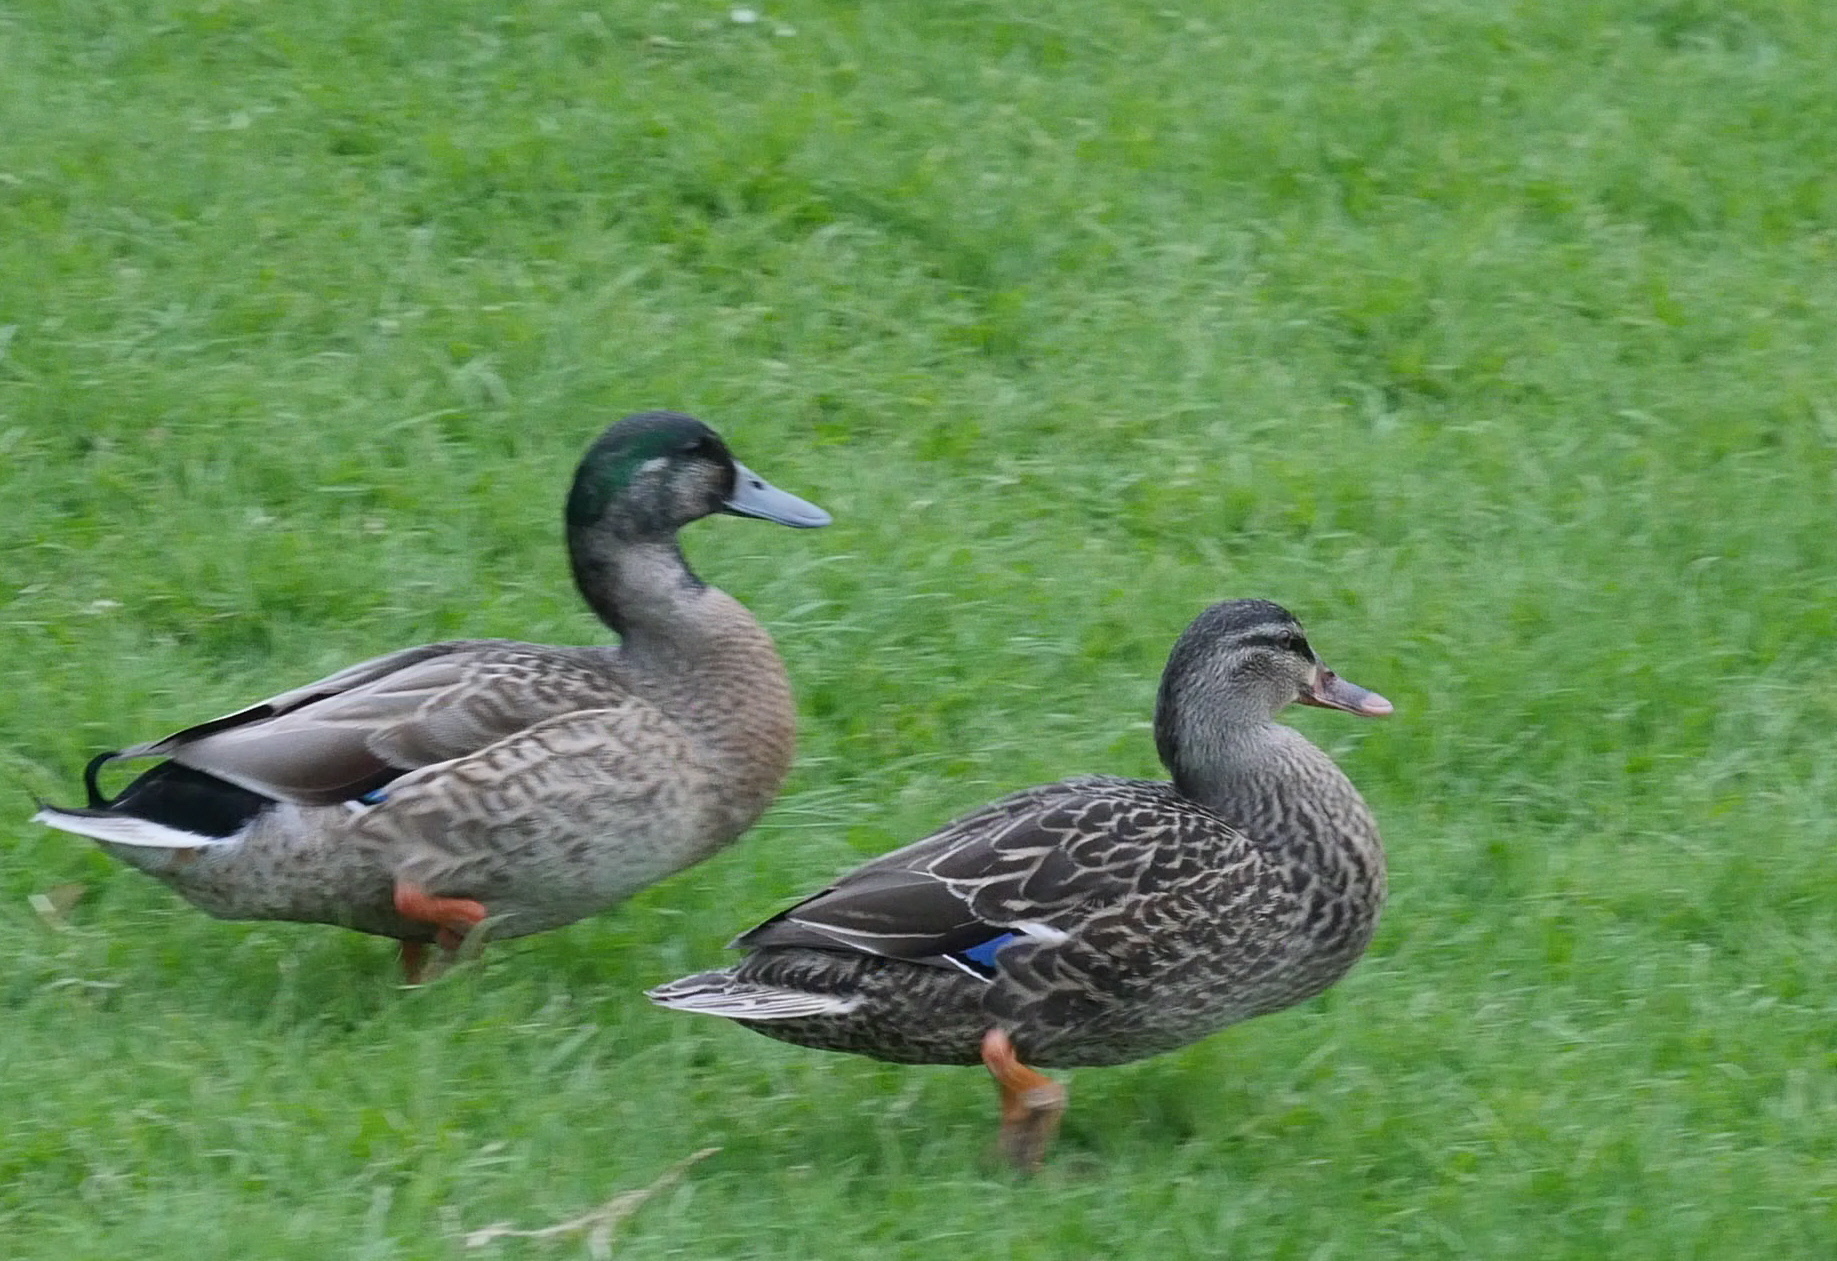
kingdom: Animalia
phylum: Chordata
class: Aves
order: Anseriformes
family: Anatidae
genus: Anas
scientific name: Anas
